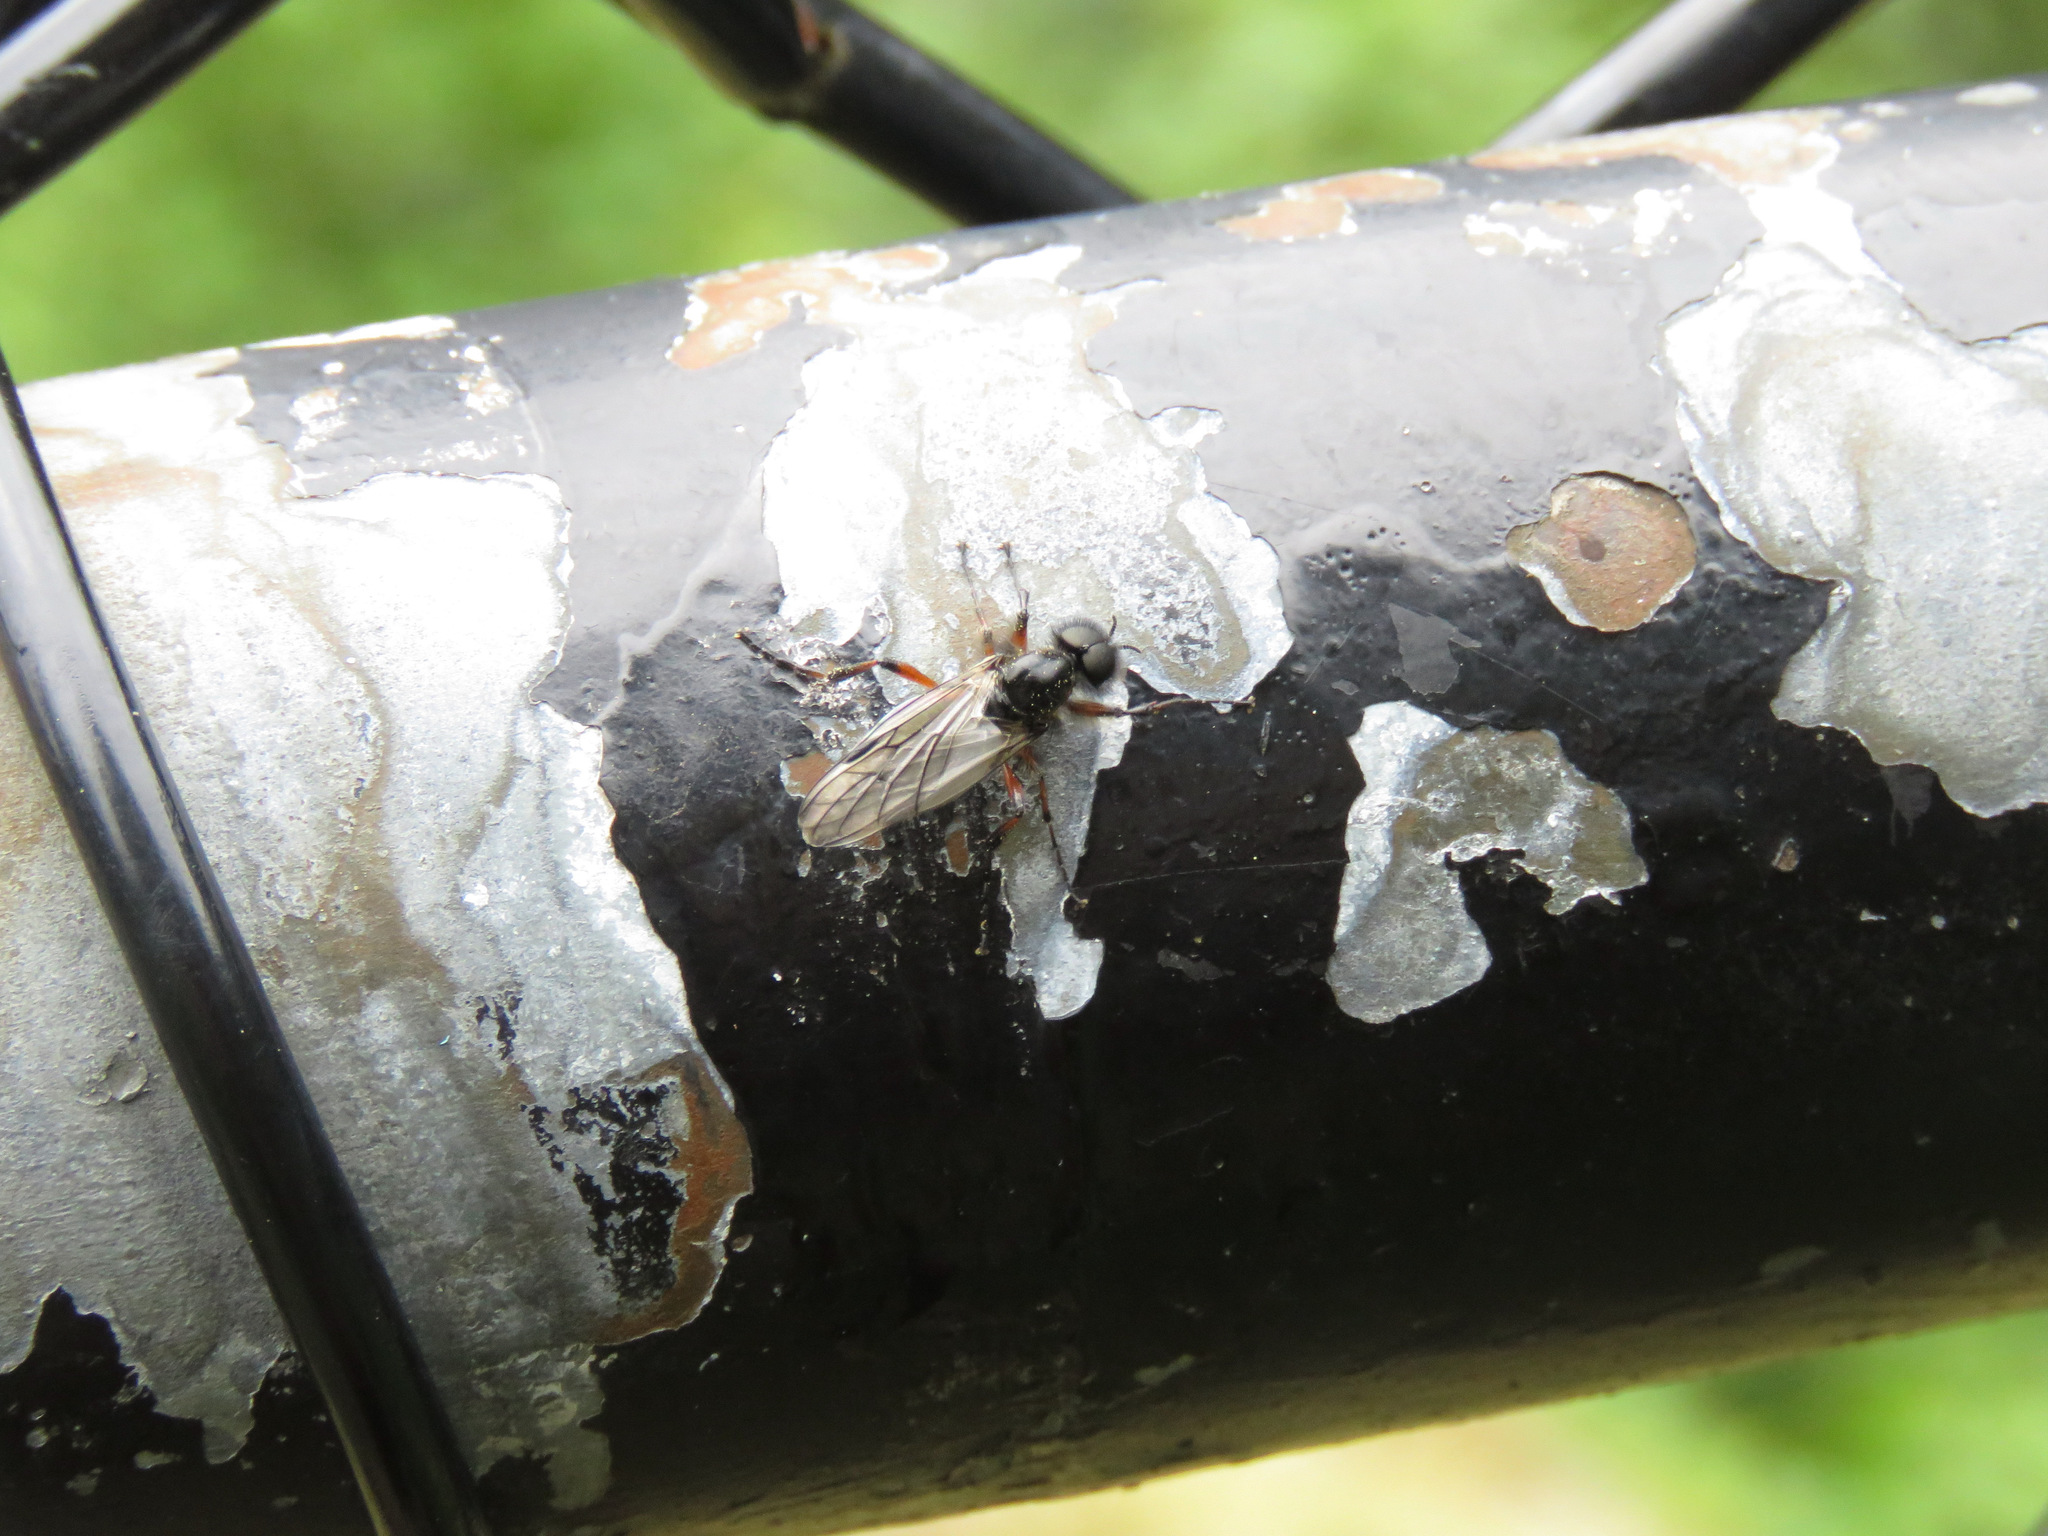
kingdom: Animalia
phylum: Arthropoda
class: Insecta
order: Diptera
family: Bibionidae
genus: Bibio
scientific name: Bibio
